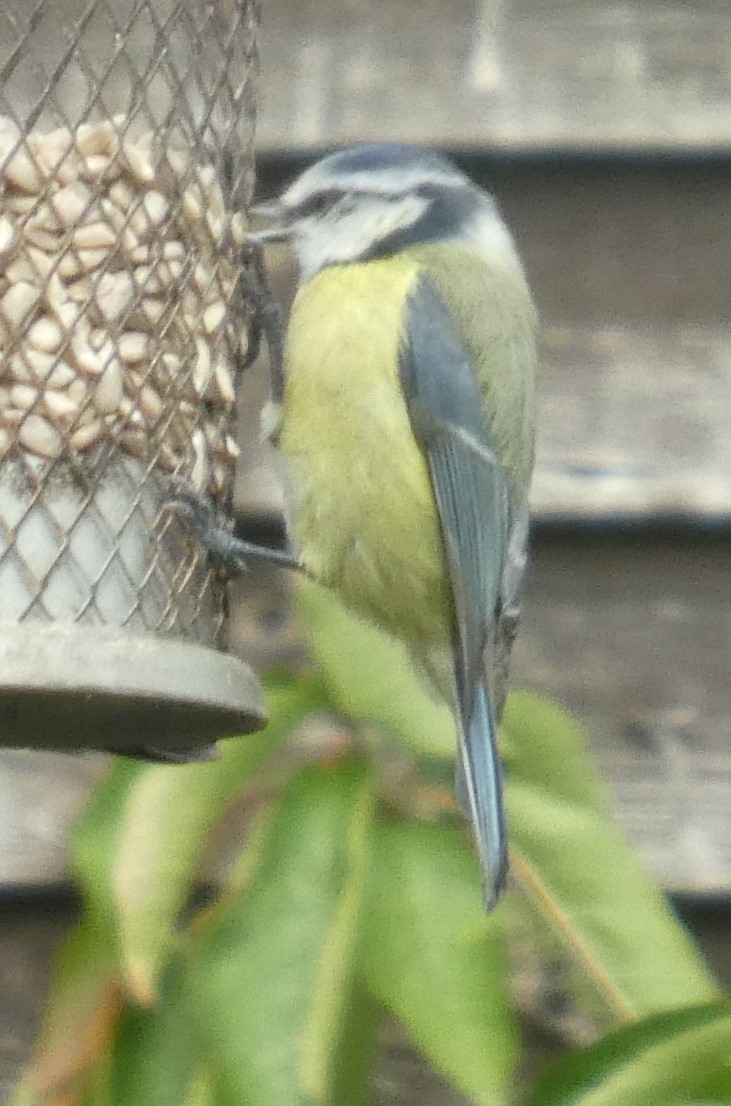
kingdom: Animalia
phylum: Chordata
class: Aves
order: Passeriformes
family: Paridae
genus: Cyanistes
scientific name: Cyanistes caeruleus
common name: Eurasian blue tit
